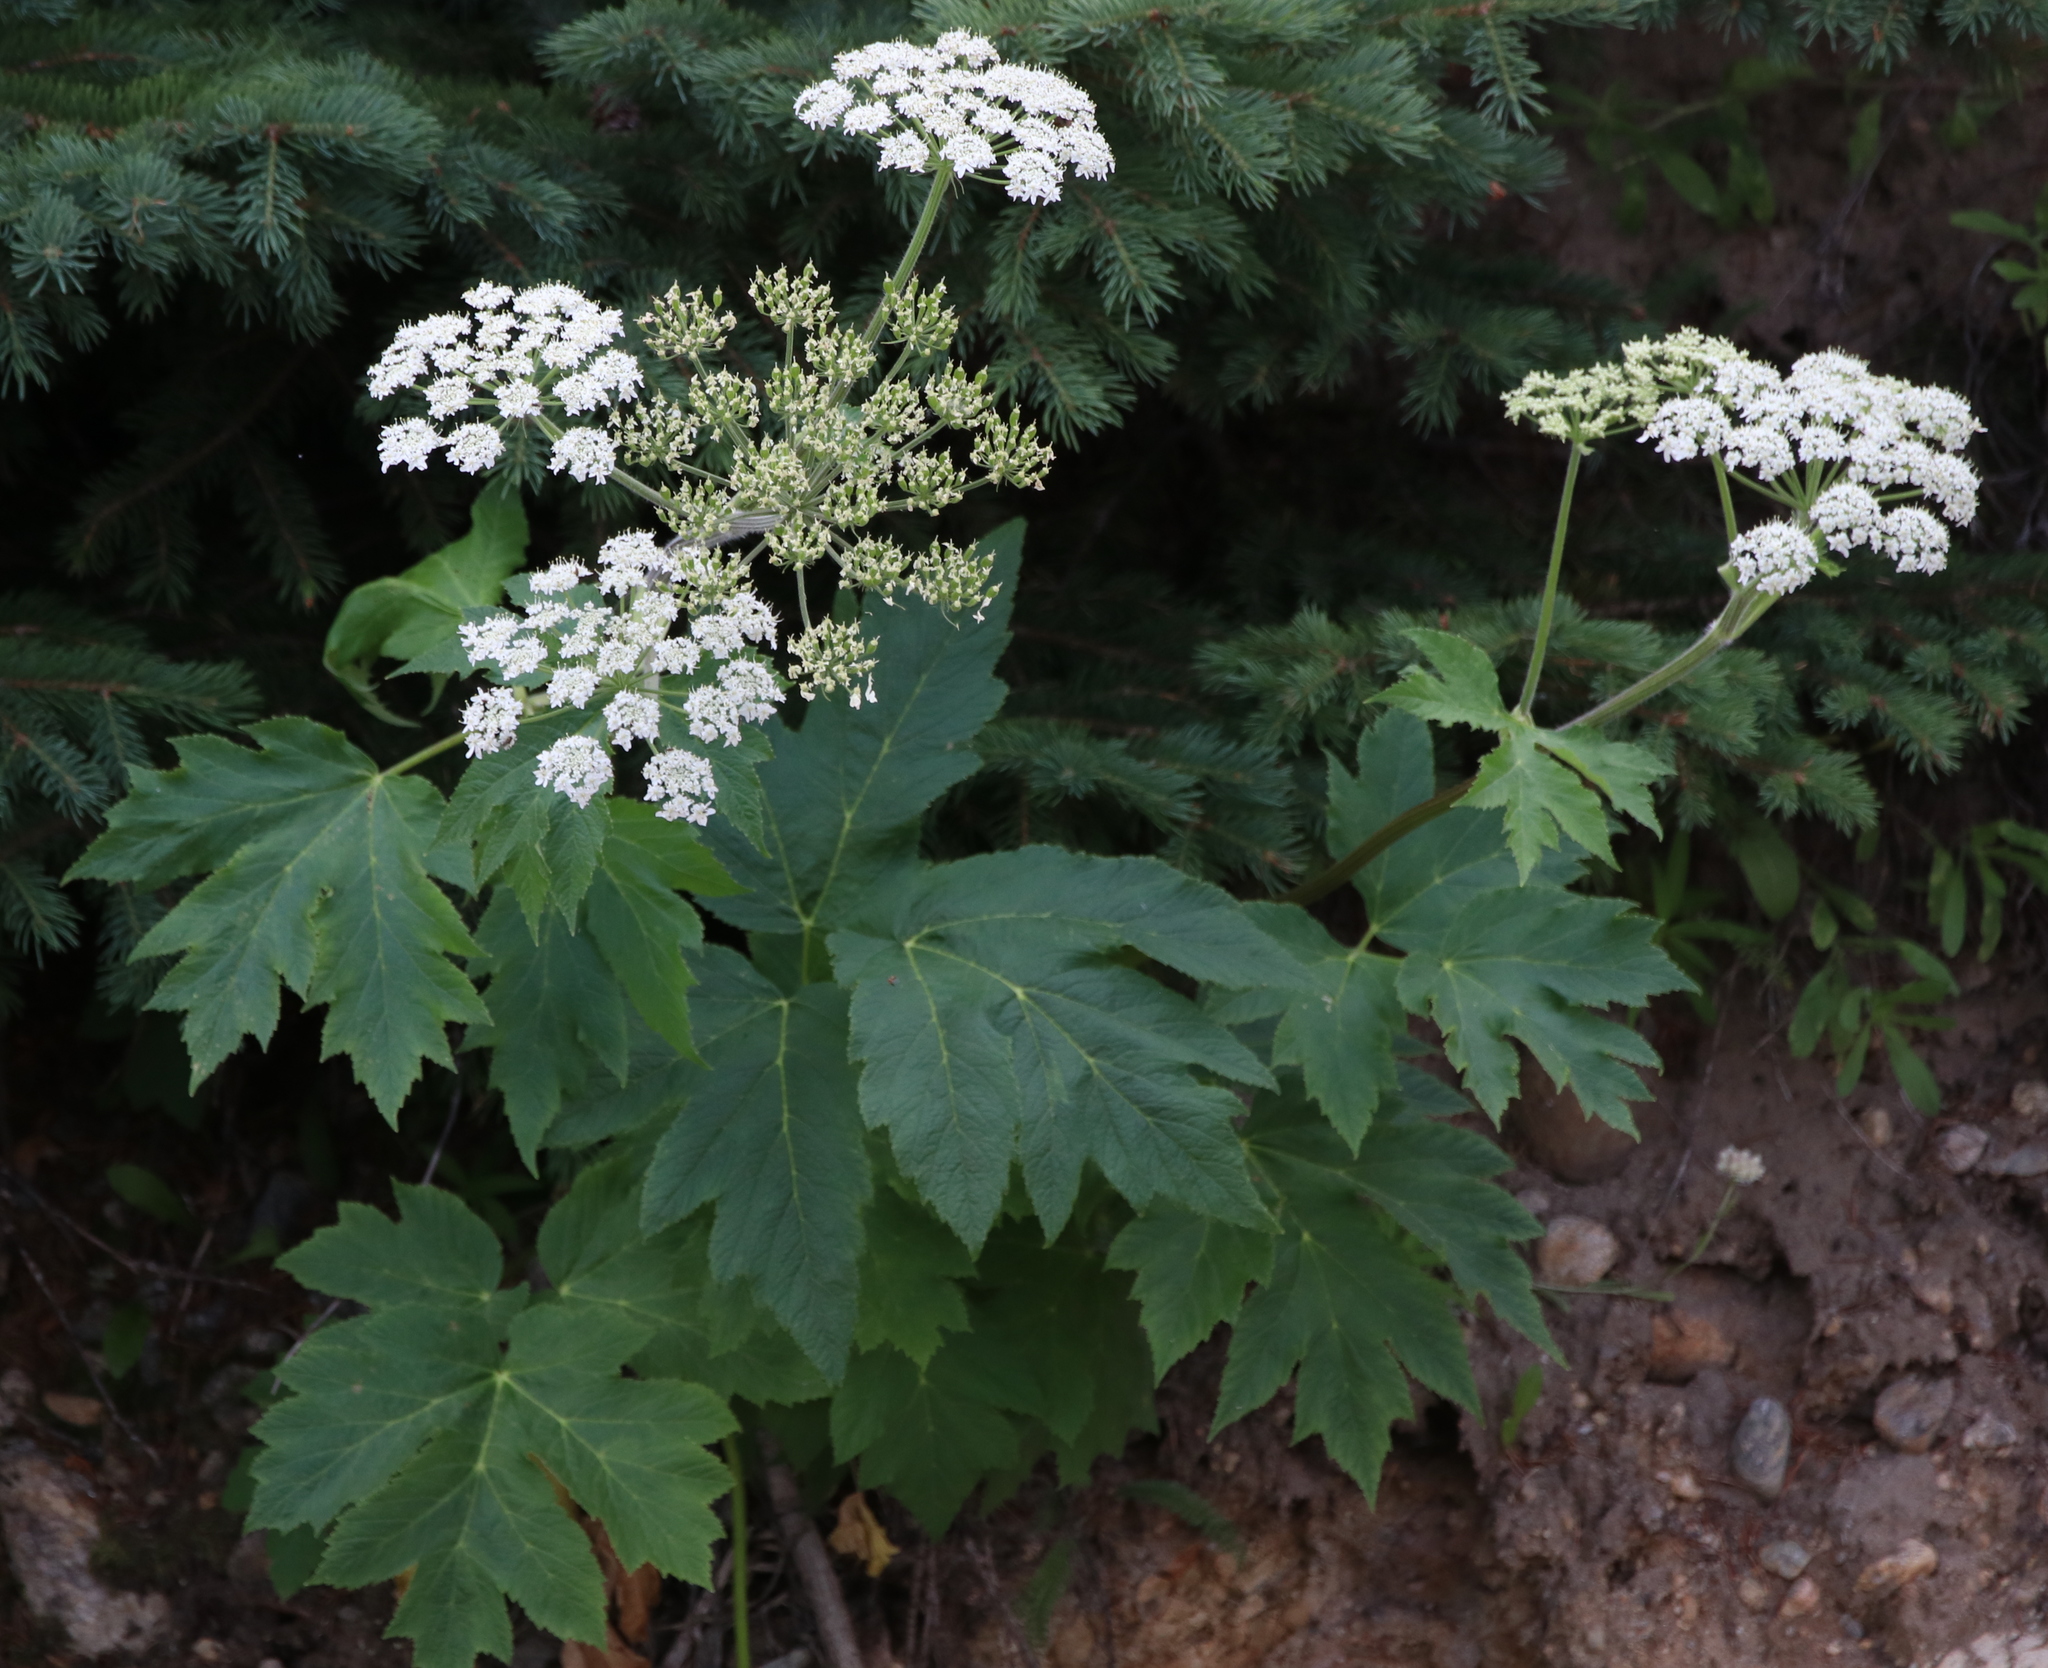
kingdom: Plantae
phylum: Tracheophyta
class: Magnoliopsida
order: Apiales
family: Apiaceae
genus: Heracleum
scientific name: Heracleum maximum
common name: American cow parsnip
